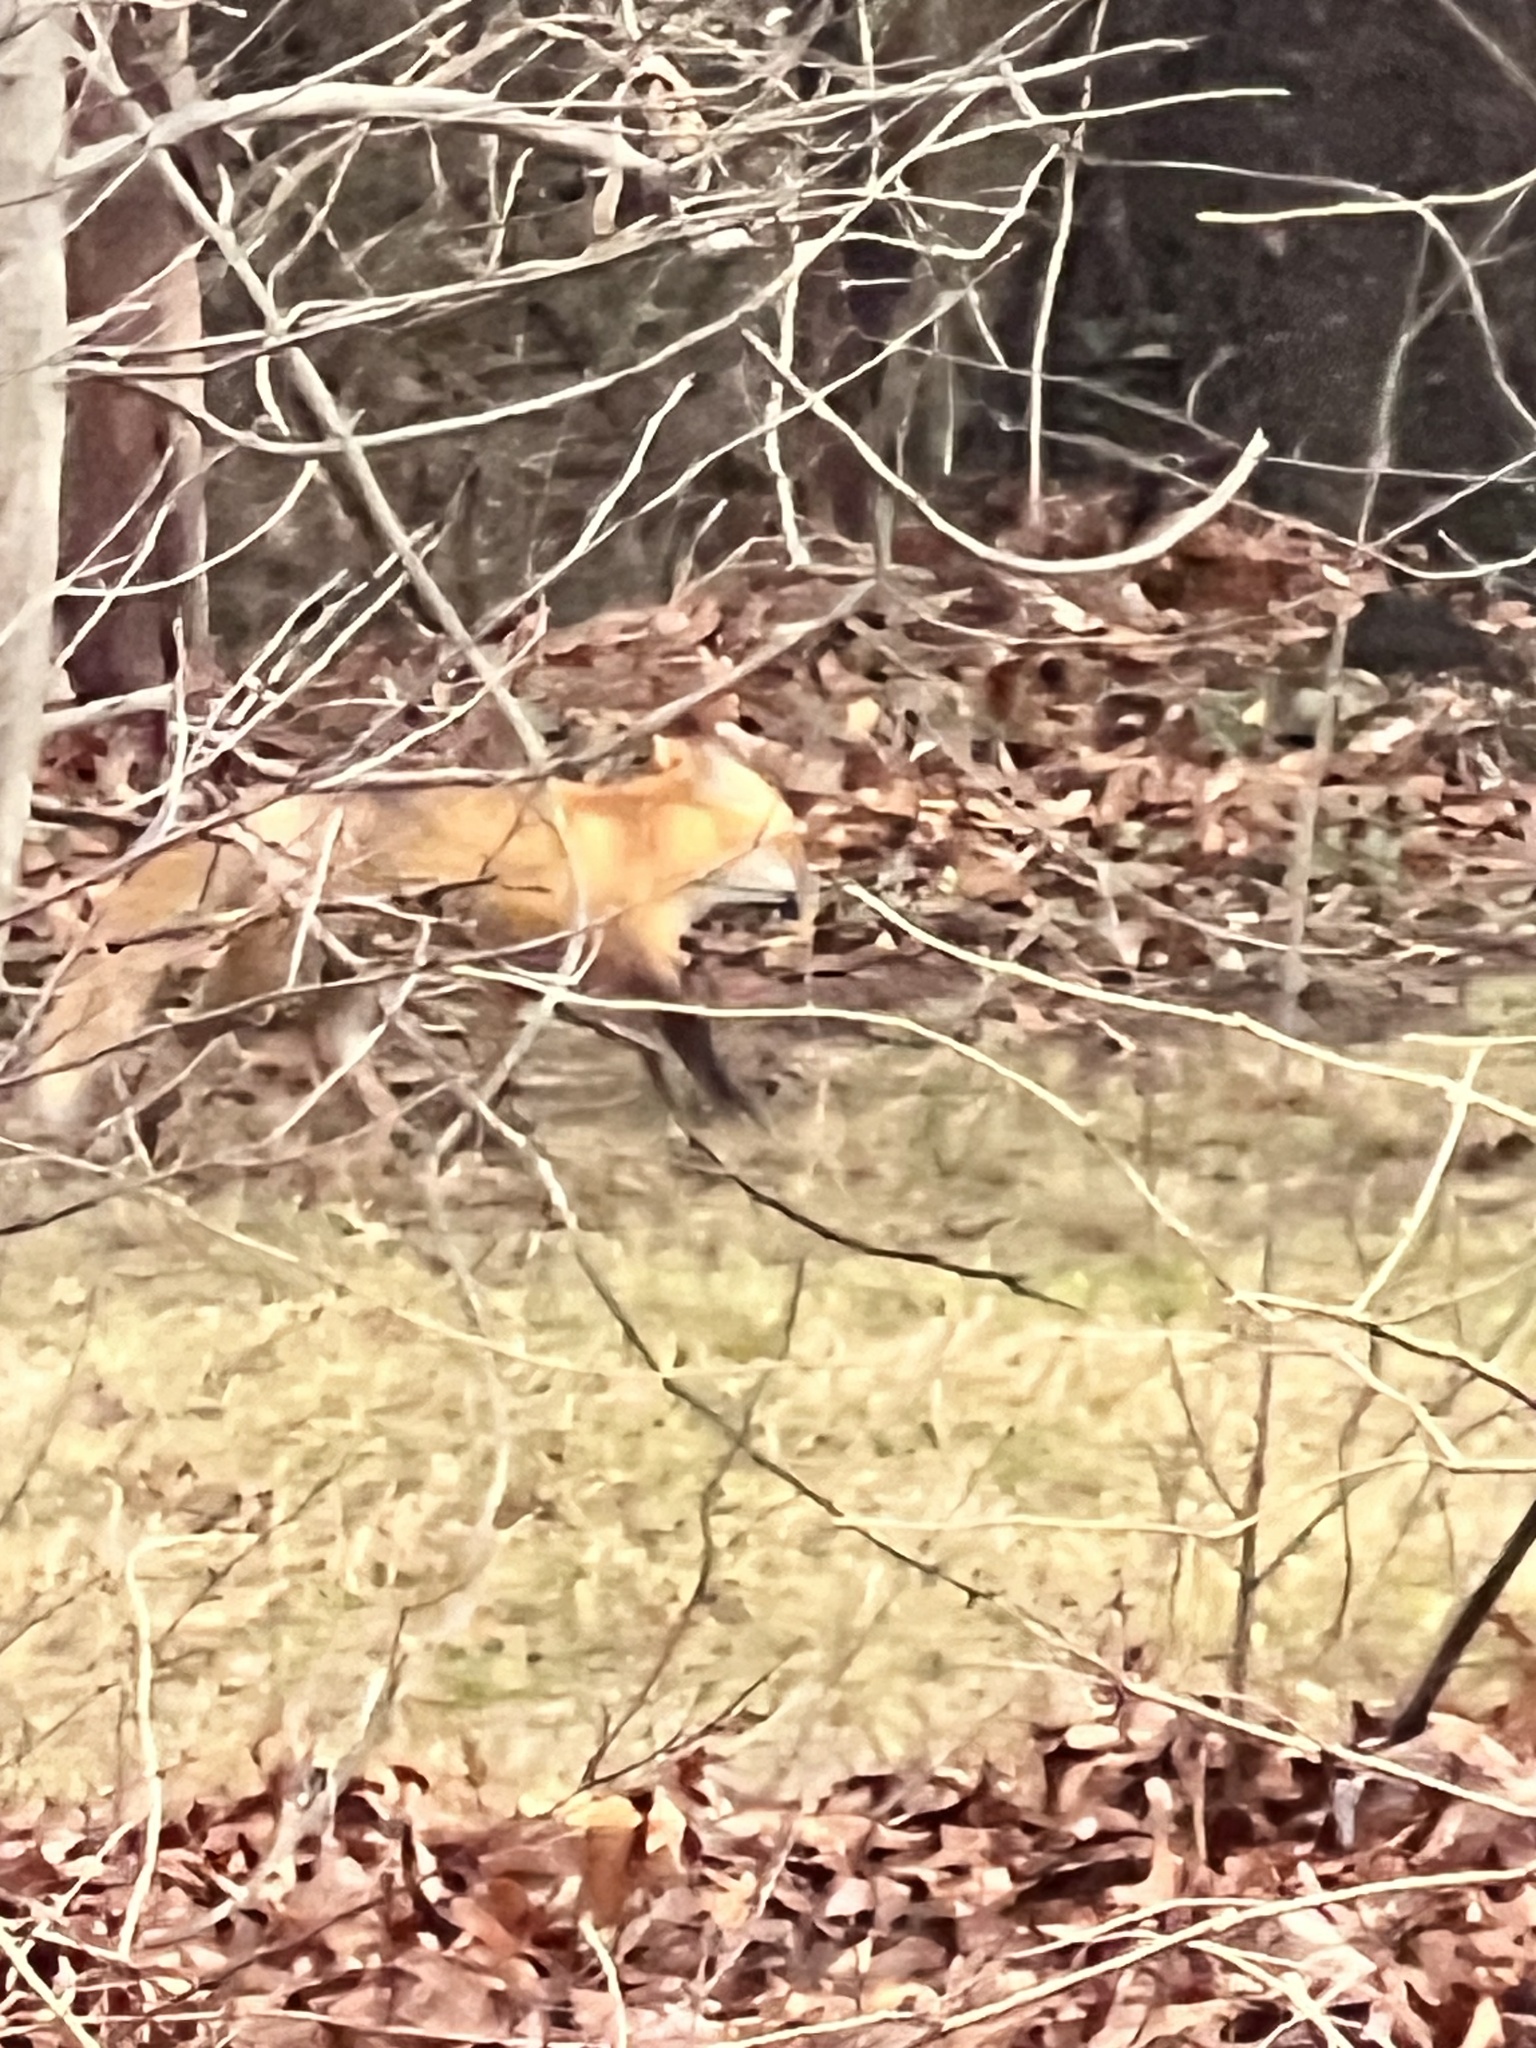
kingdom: Animalia
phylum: Chordata
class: Mammalia
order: Carnivora
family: Canidae
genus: Vulpes
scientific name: Vulpes vulpes
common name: Red fox
